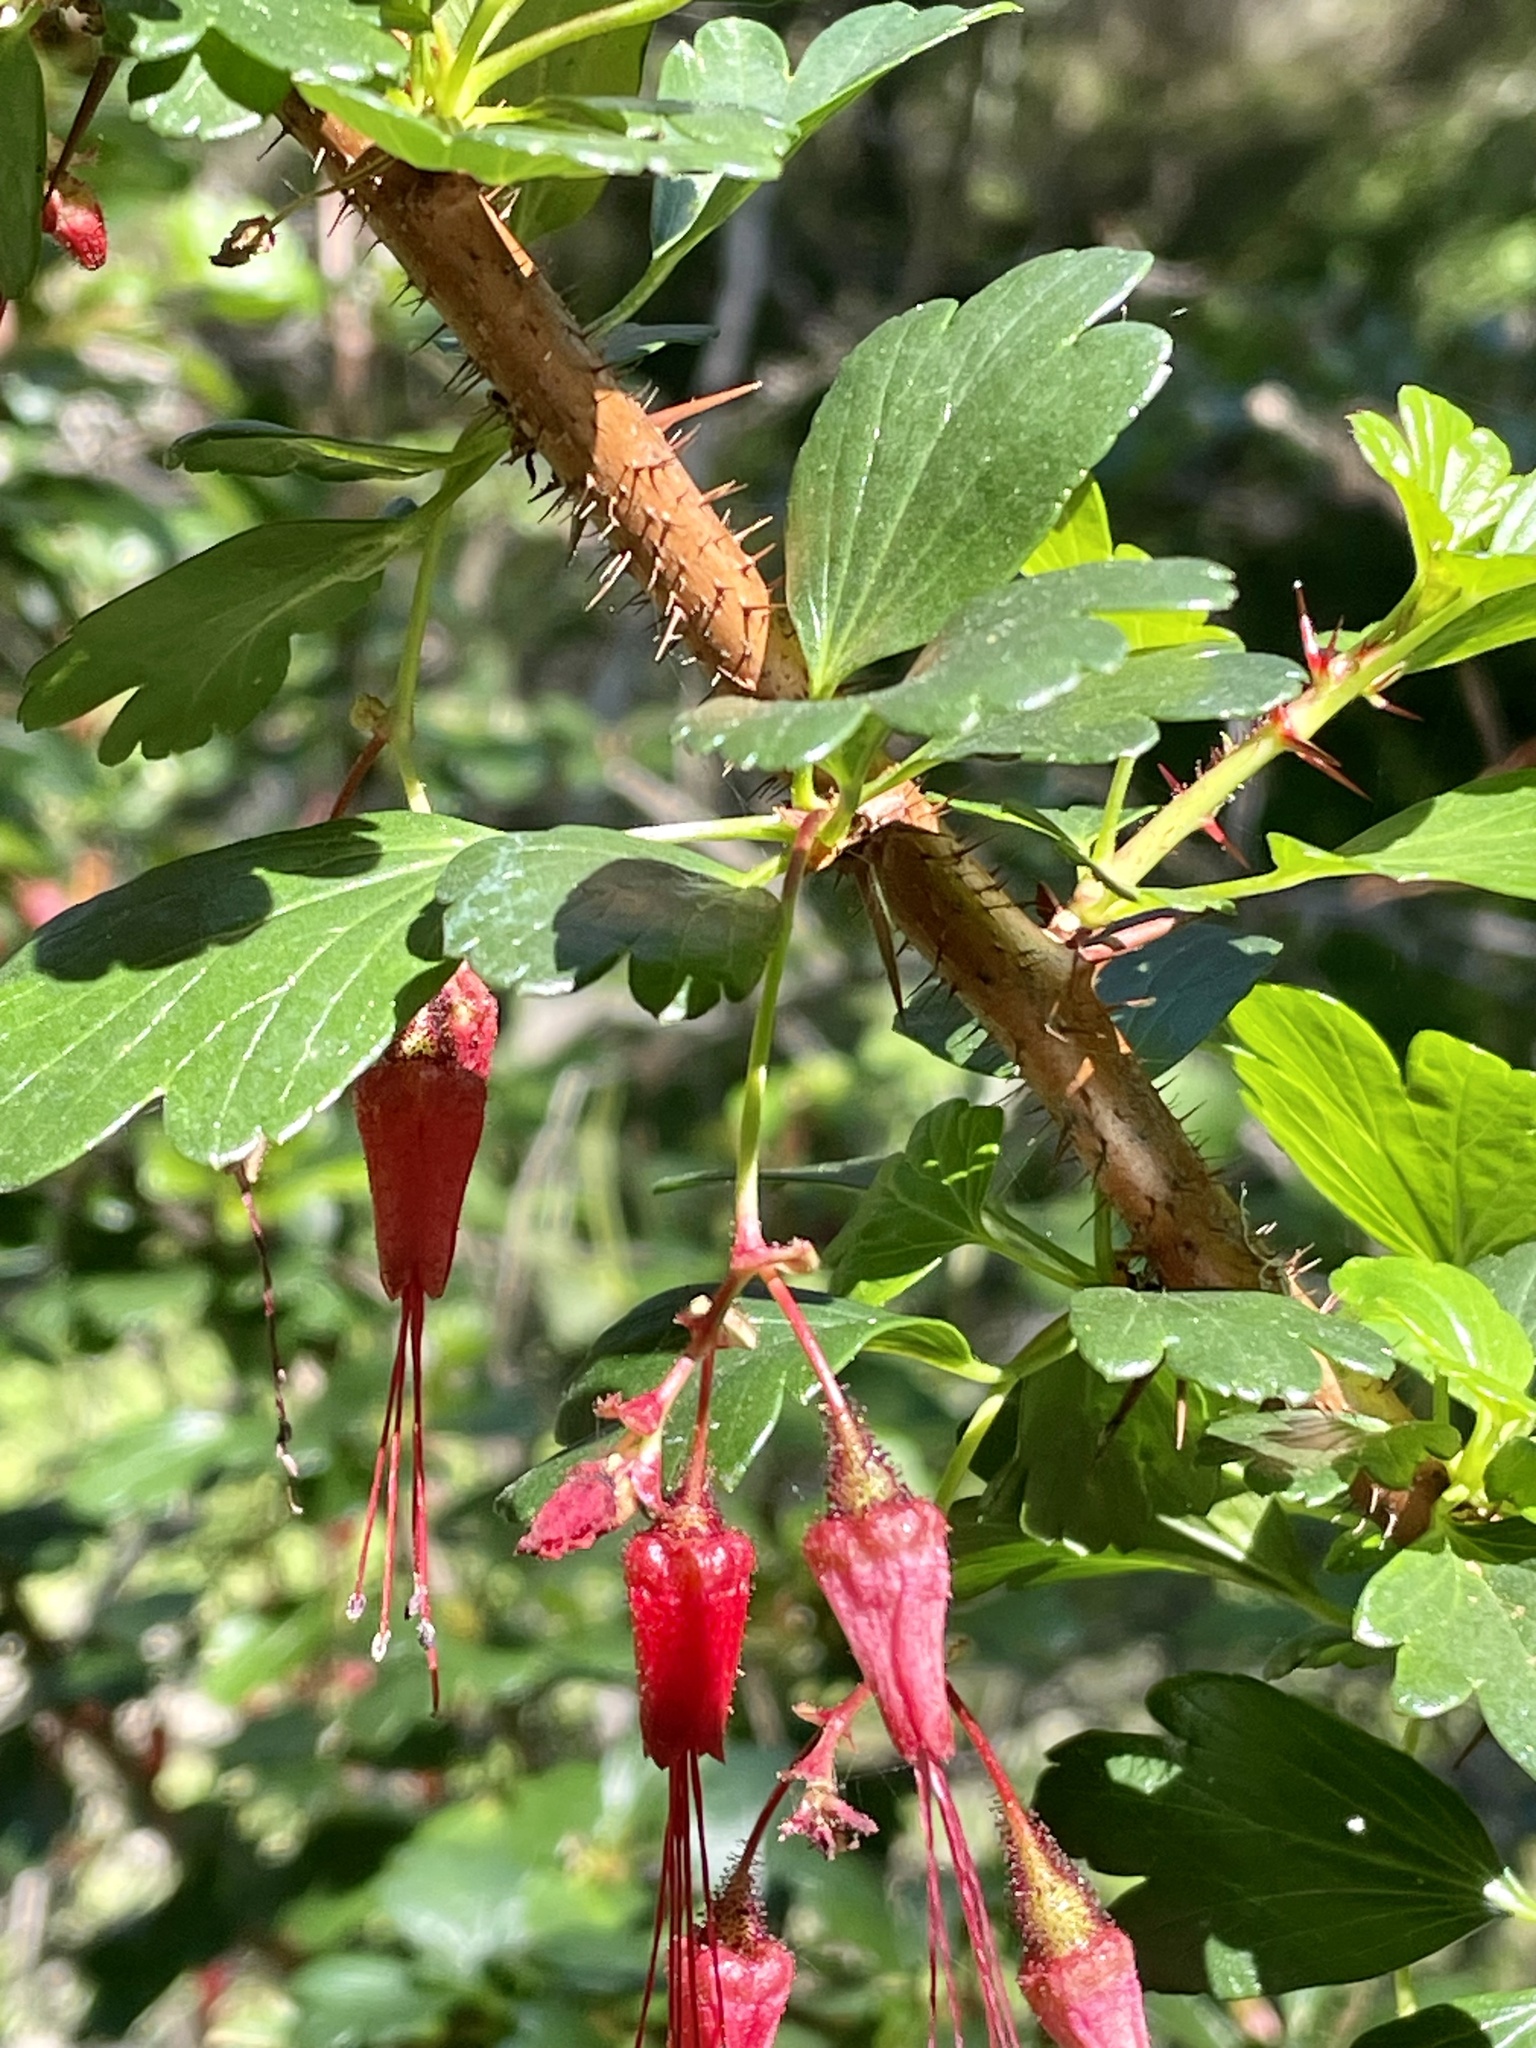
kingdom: Plantae
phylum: Tracheophyta
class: Magnoliopsida
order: Saxifragales
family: Grossulariaceae
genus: Ribes
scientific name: Ribes speciosum
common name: Fuchsia-flower gooseberry
